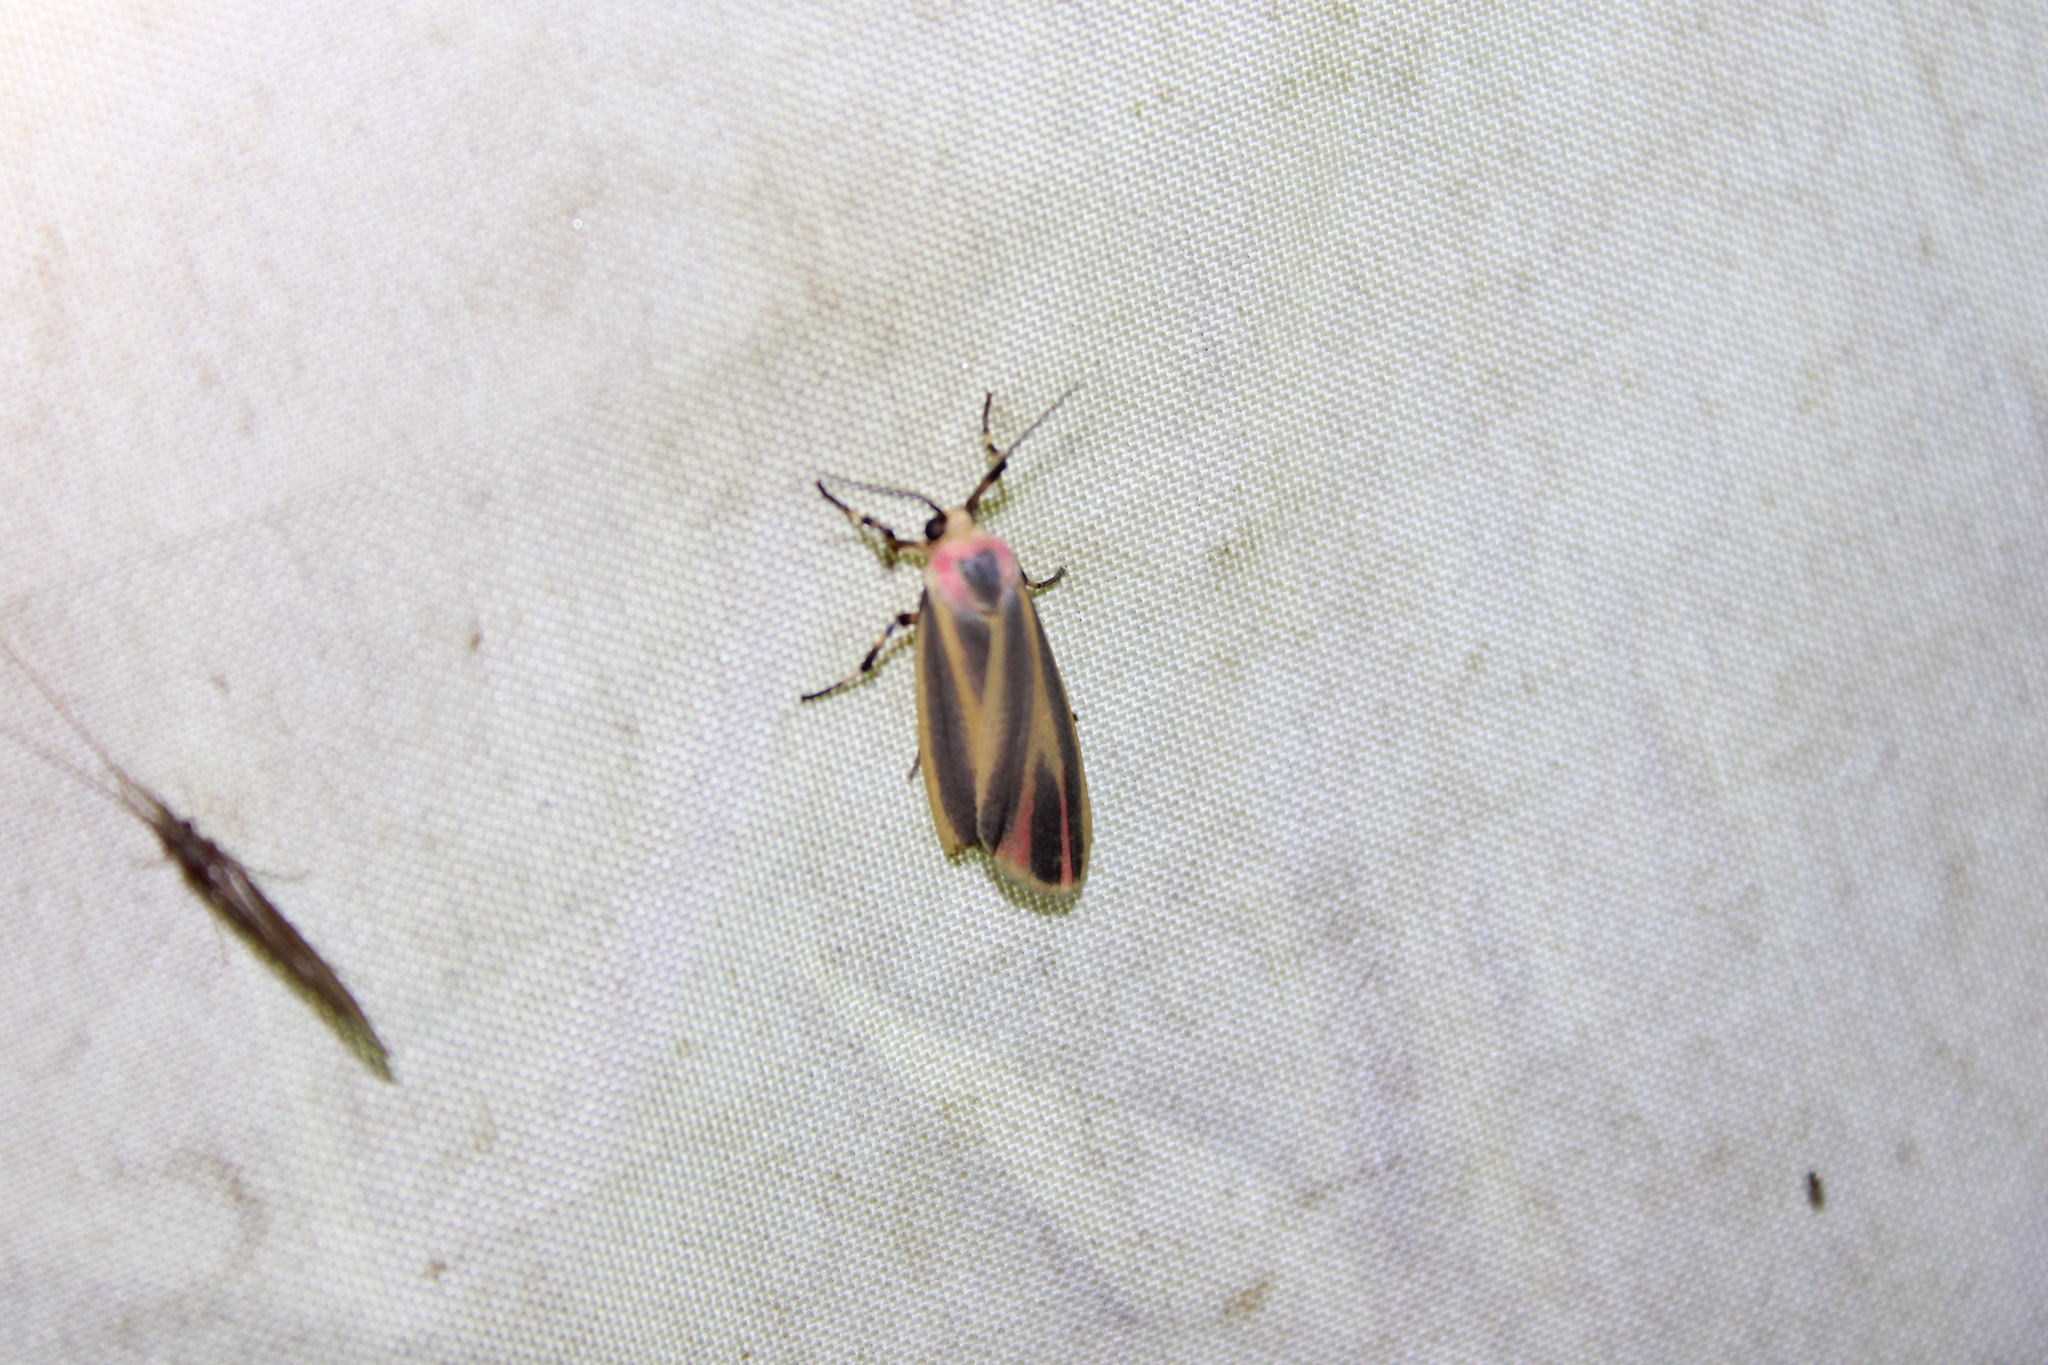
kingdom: Animalia
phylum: Arthropoda
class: Insecta
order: Lepidoptera
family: Erebidae
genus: Hypoprepia
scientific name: Hypoprepia fucosa
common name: Painted lichen moth
